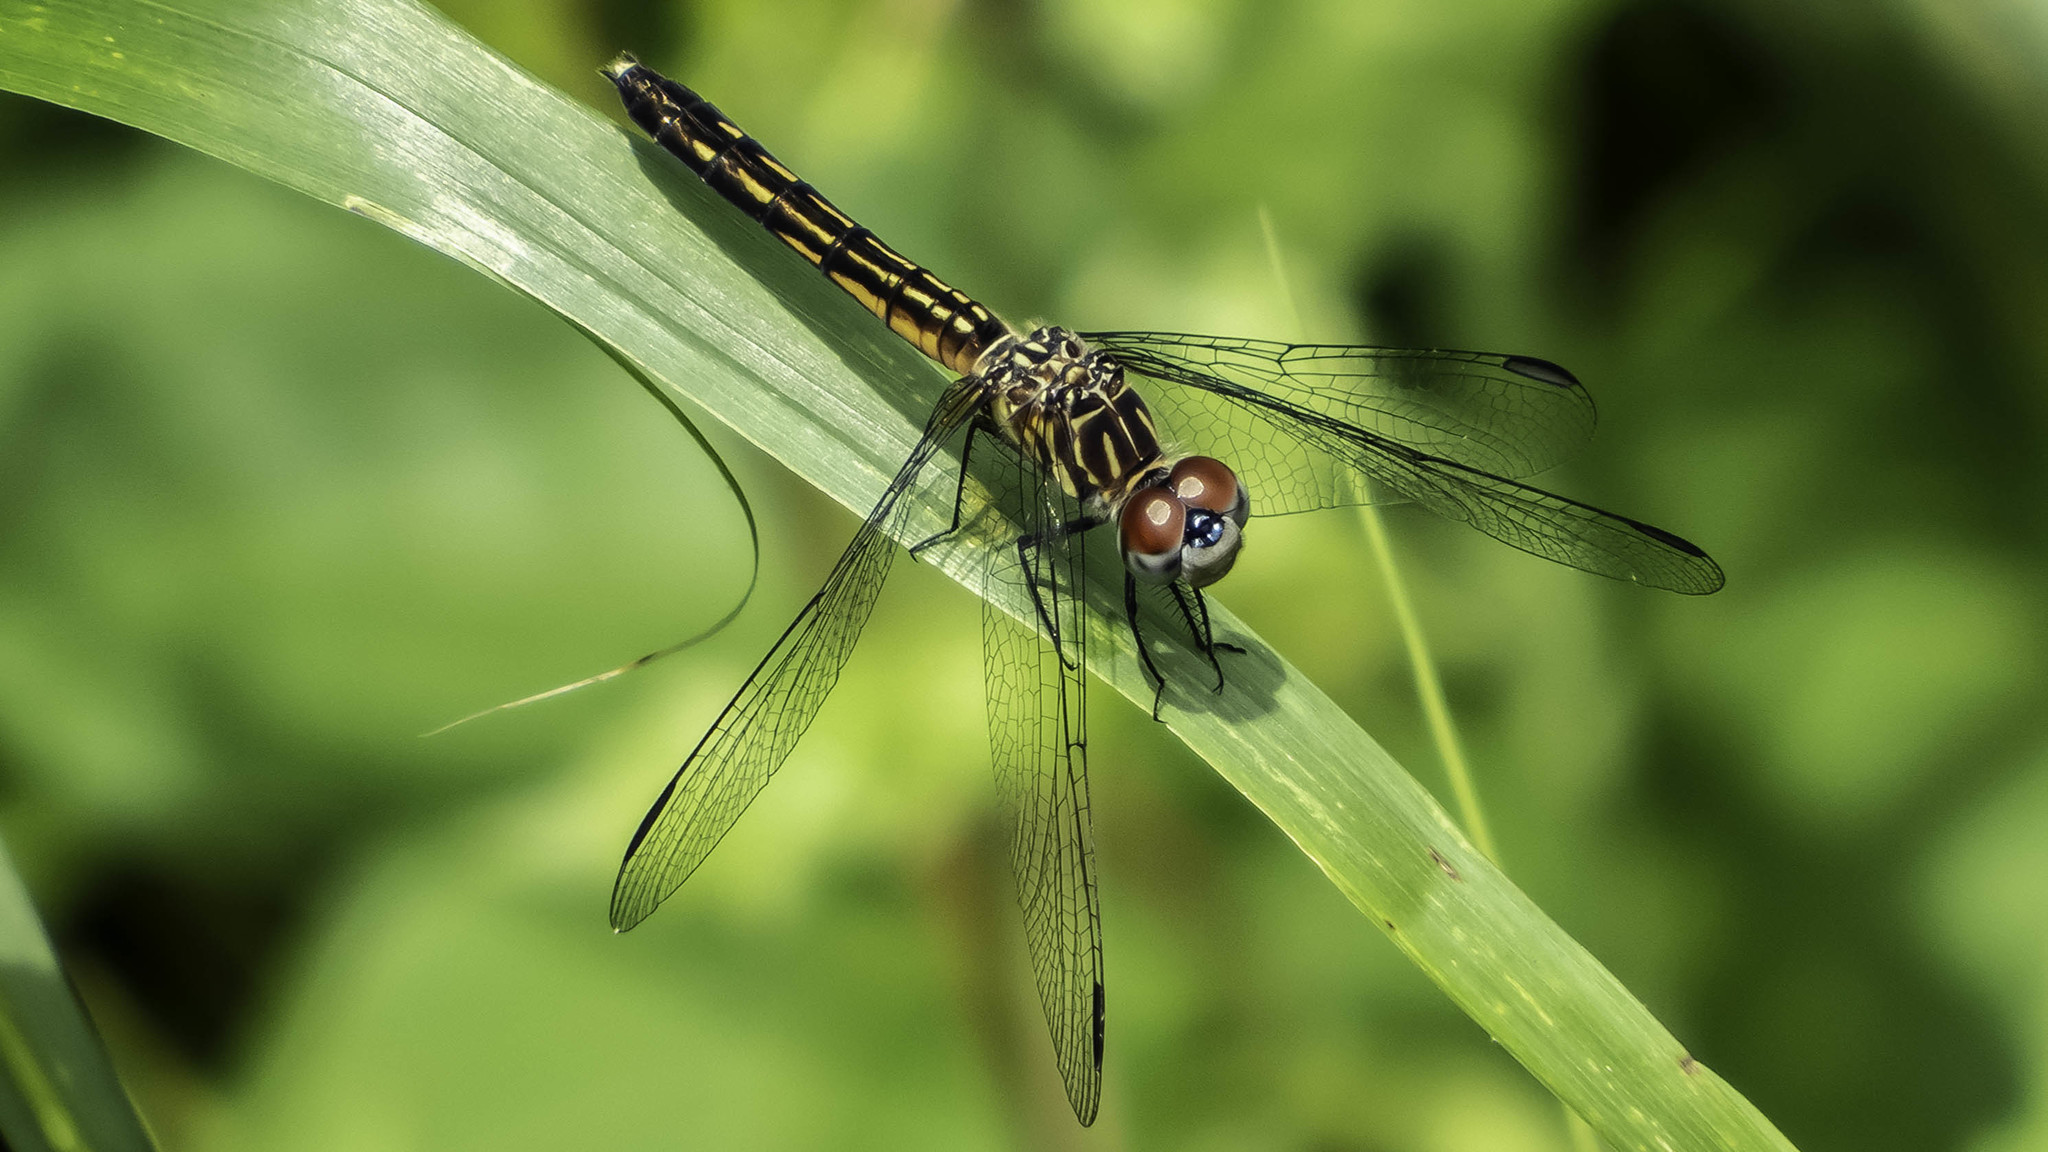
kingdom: Animalia
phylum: Arthropoda
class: Insecta
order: Odonata
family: Libellulidae
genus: Pachydiplax
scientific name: Pachydiplax longipennis
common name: Blue dasher
